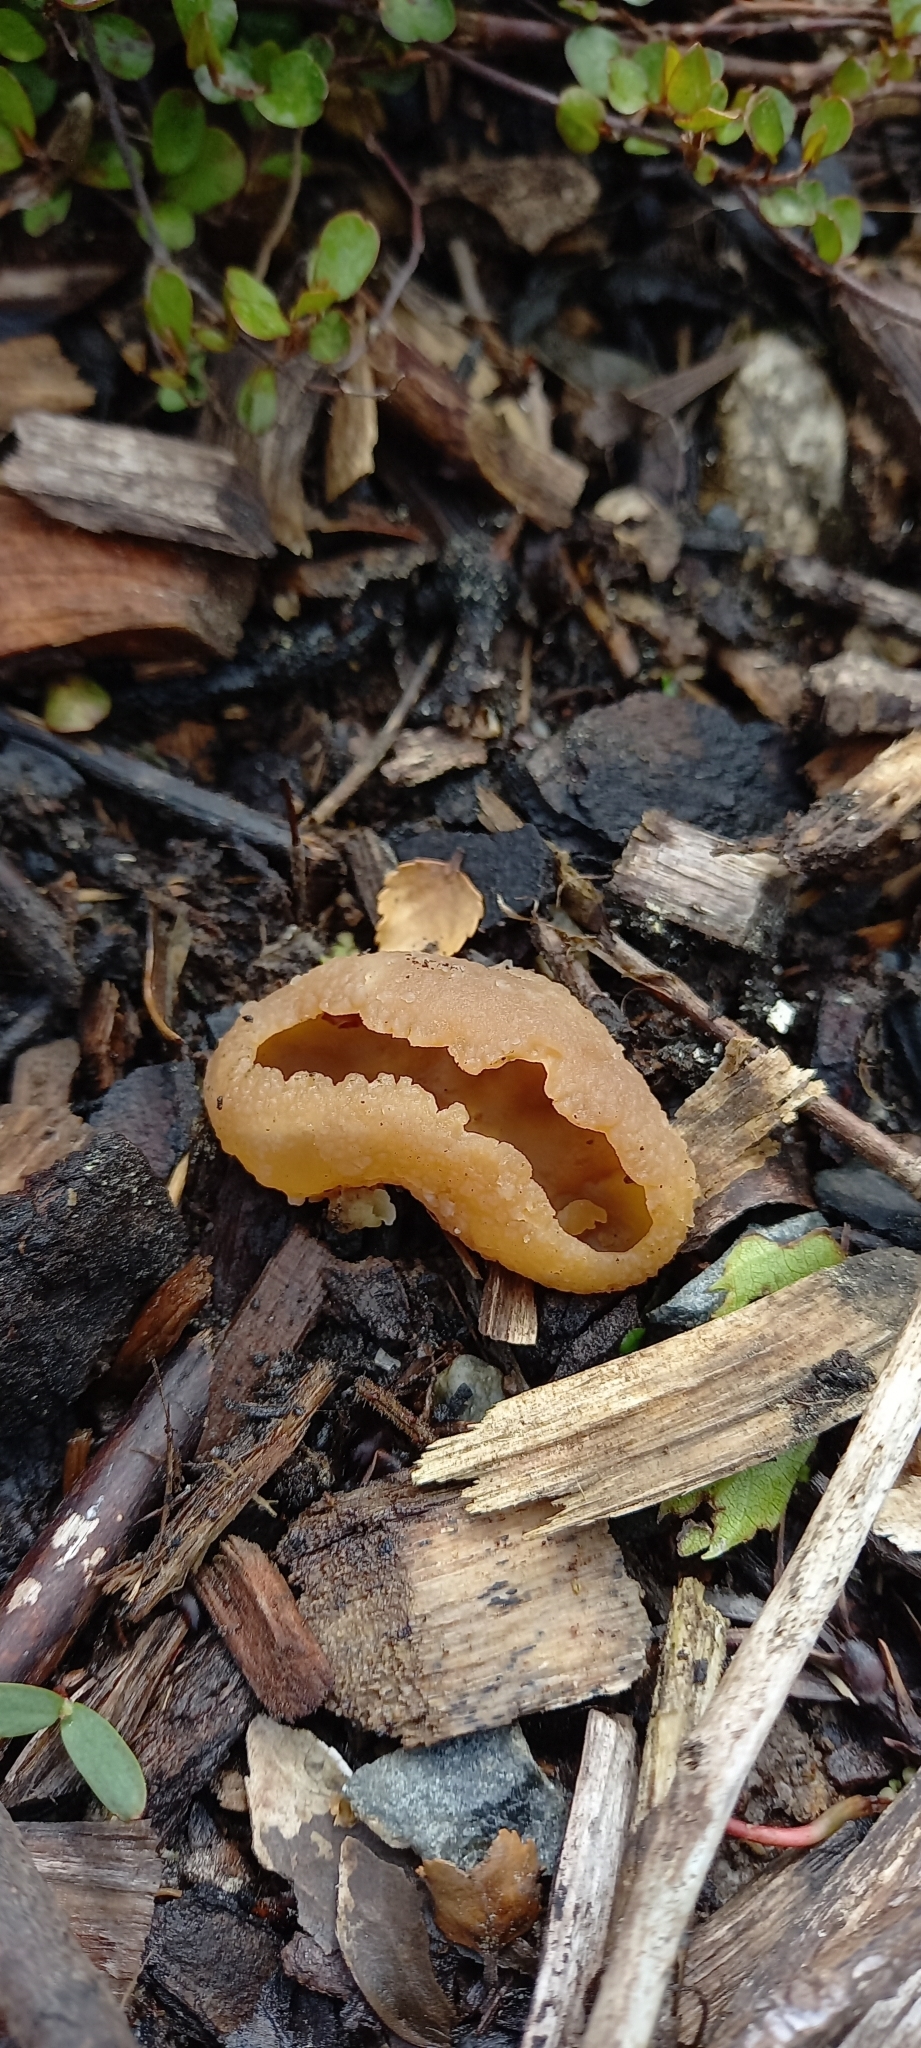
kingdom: Fungi
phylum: Ascomycota
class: Pezizomycetes
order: Pezizales
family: Pezizaceae
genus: Peziza
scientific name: Peziza varia
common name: Layered cup
